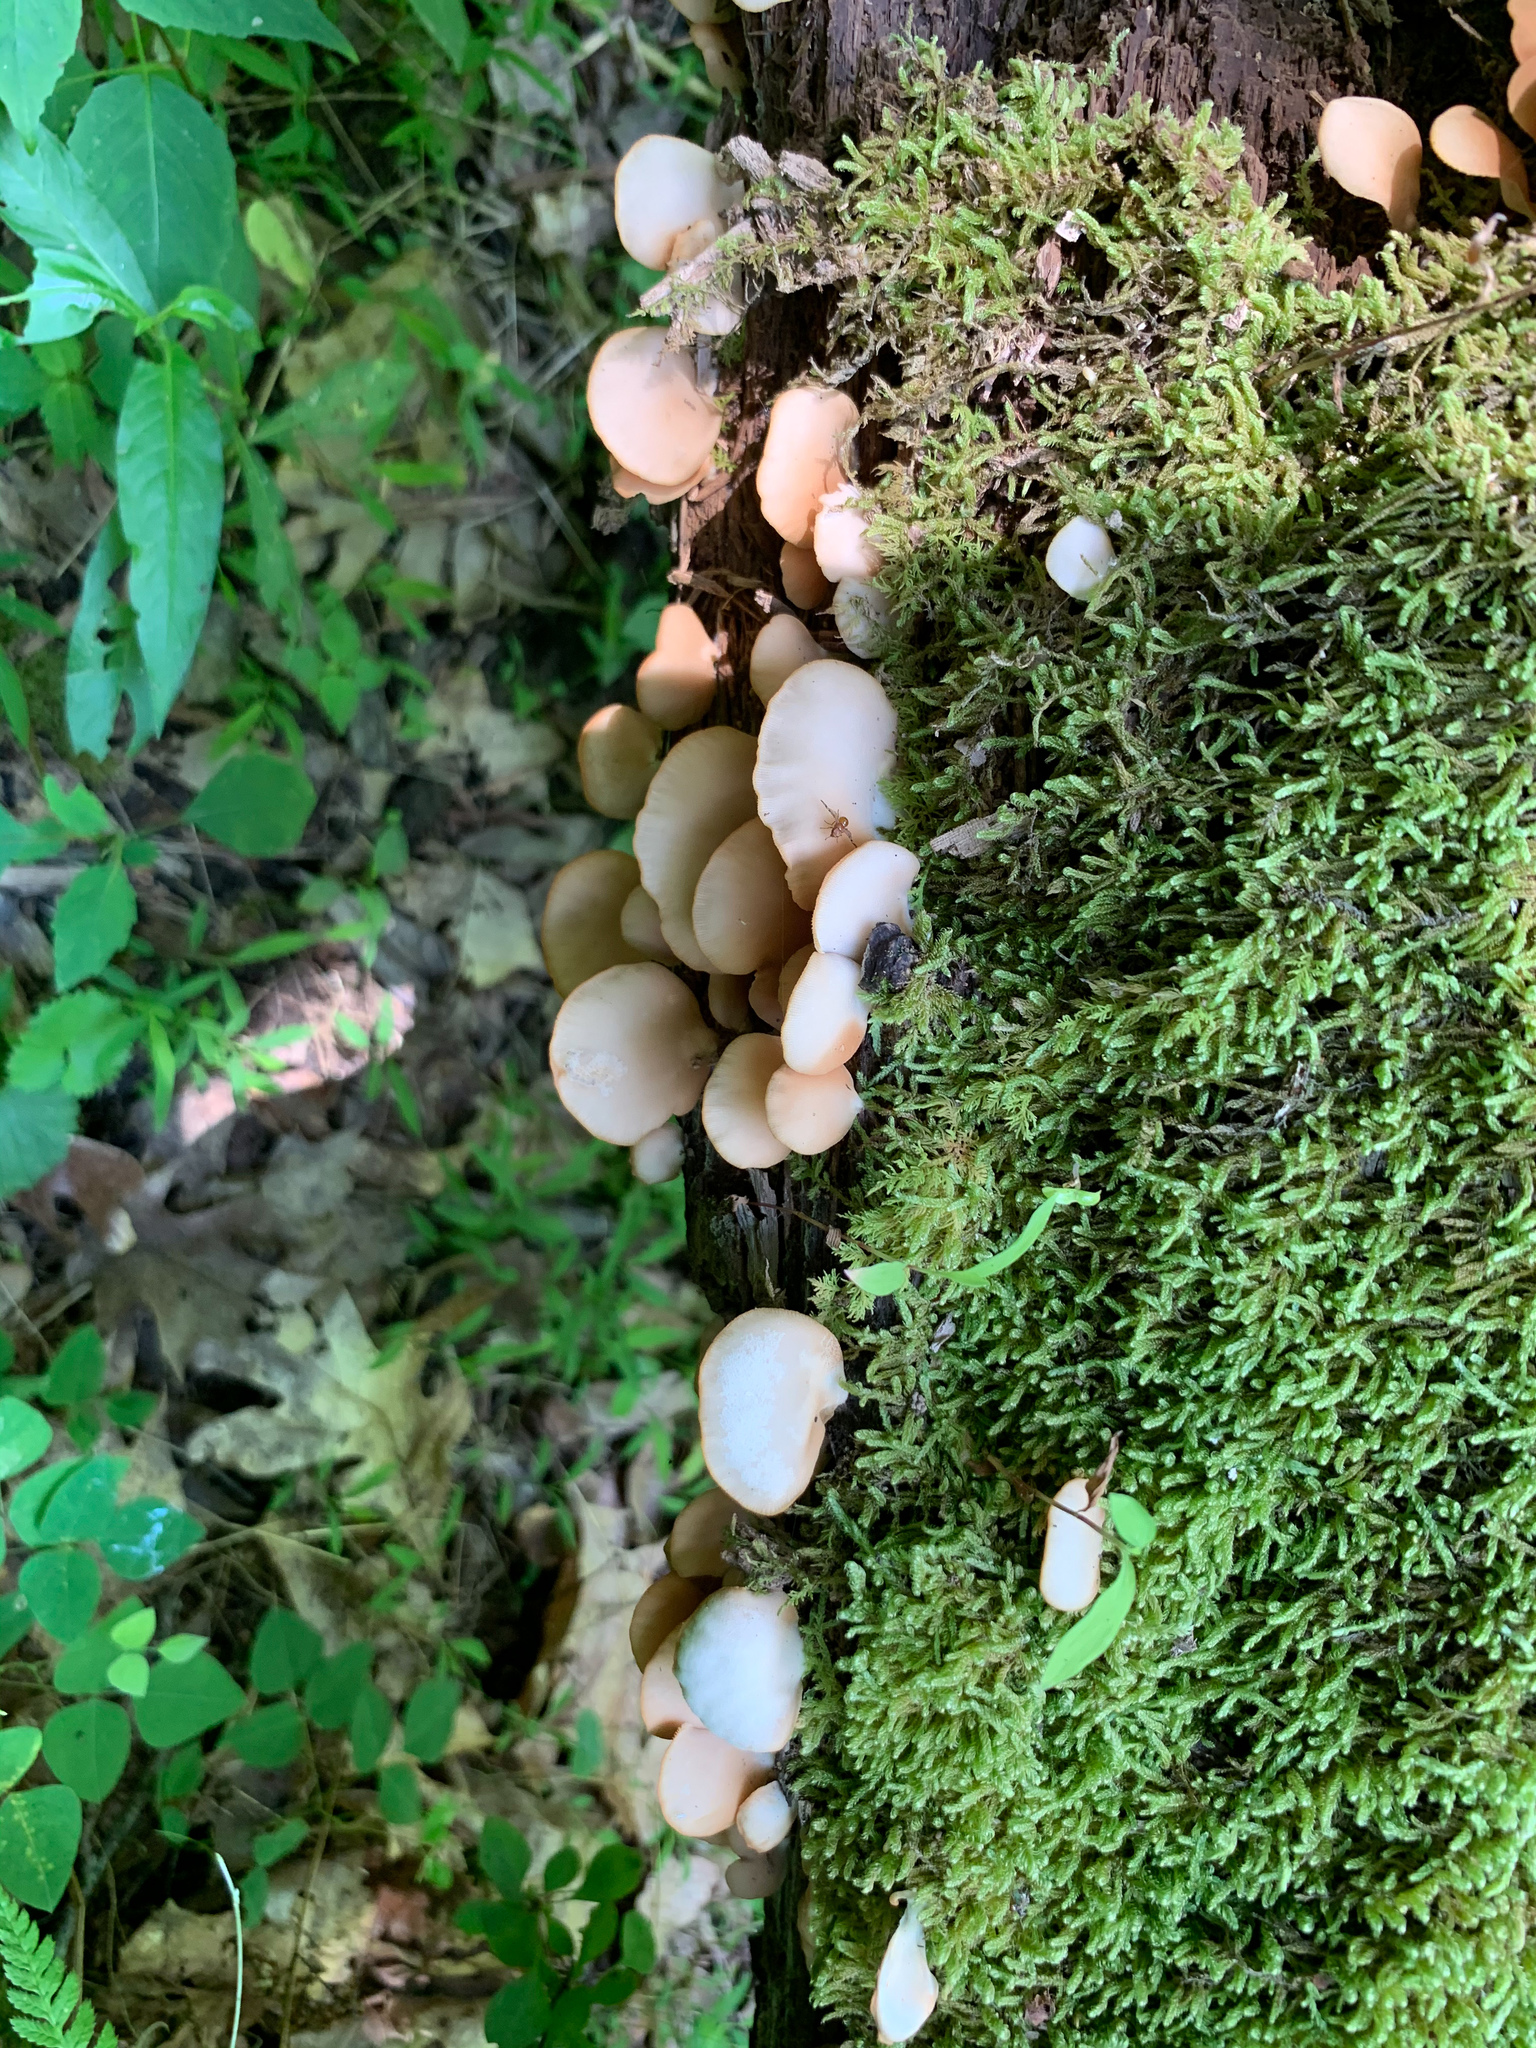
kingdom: Fungi
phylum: Basidiomycota
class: Agaricomycetes
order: Agaricales
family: Crepidotaceae
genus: Crepidotus
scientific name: Crepidotus mollis
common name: Peeling oysterling
